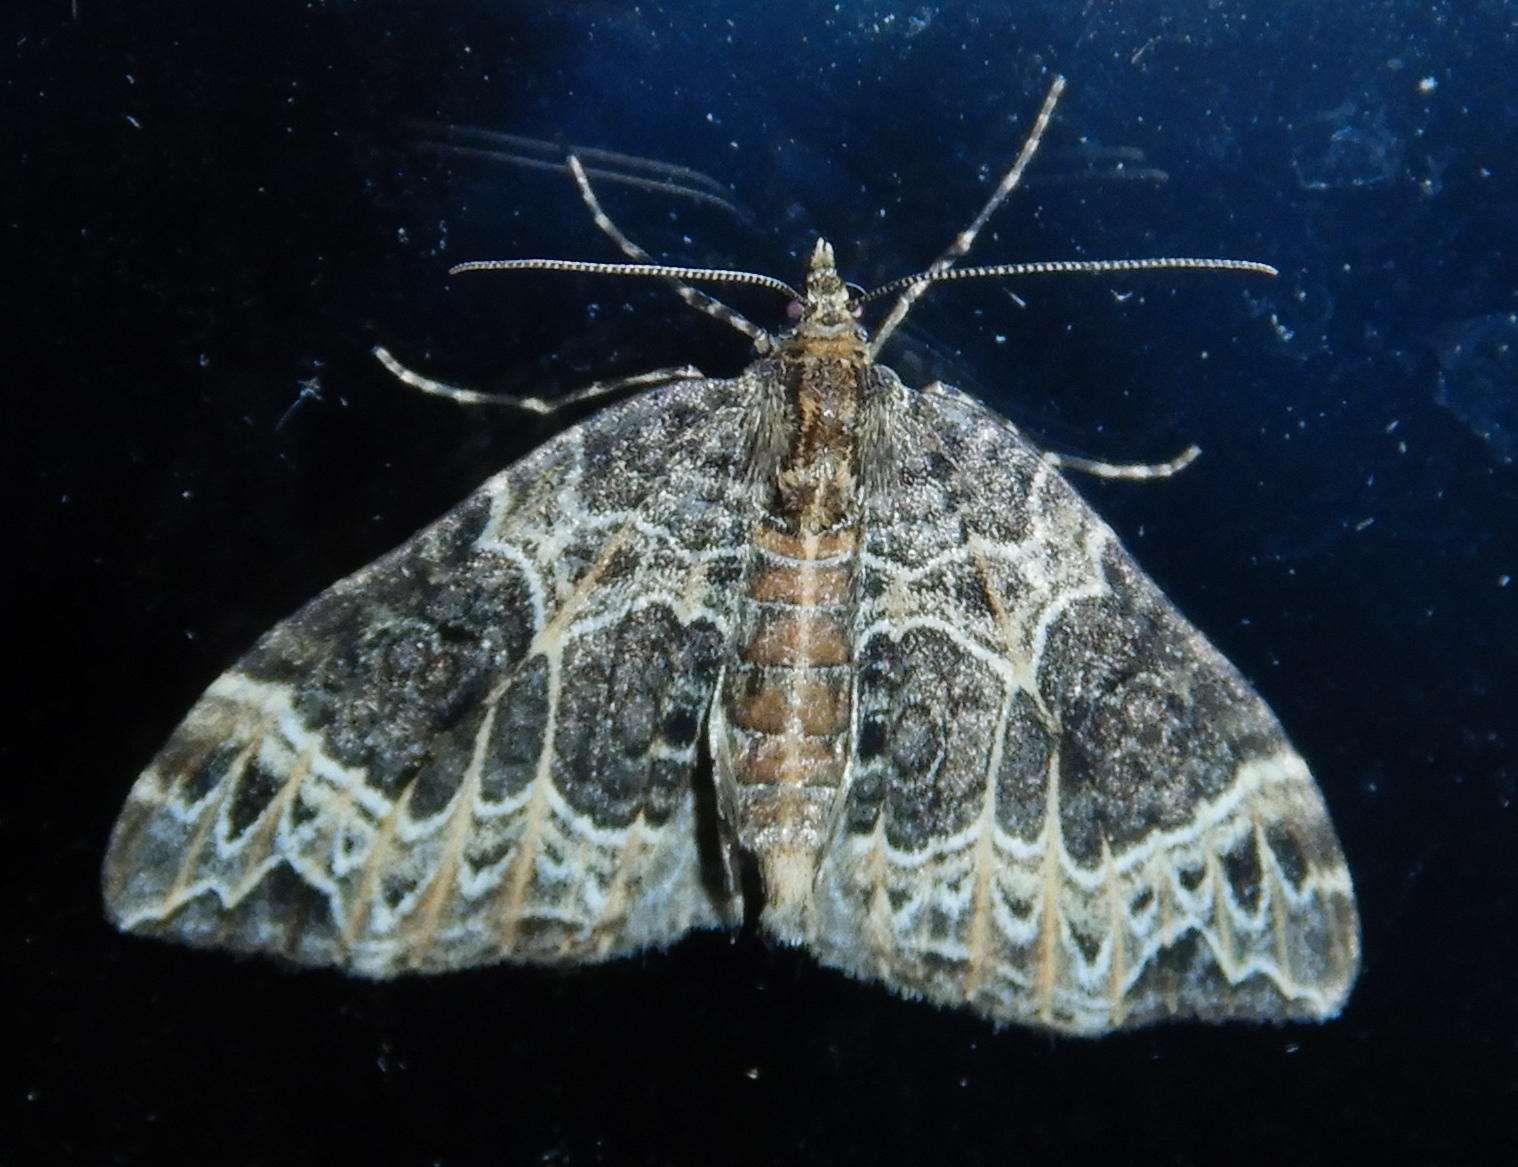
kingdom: Animalia
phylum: Arthropoda
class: Insecta
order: Lepidoptera
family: Geometridae
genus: Ecliptopera
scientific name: Ecliptopera silaceata
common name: Small phoenix
